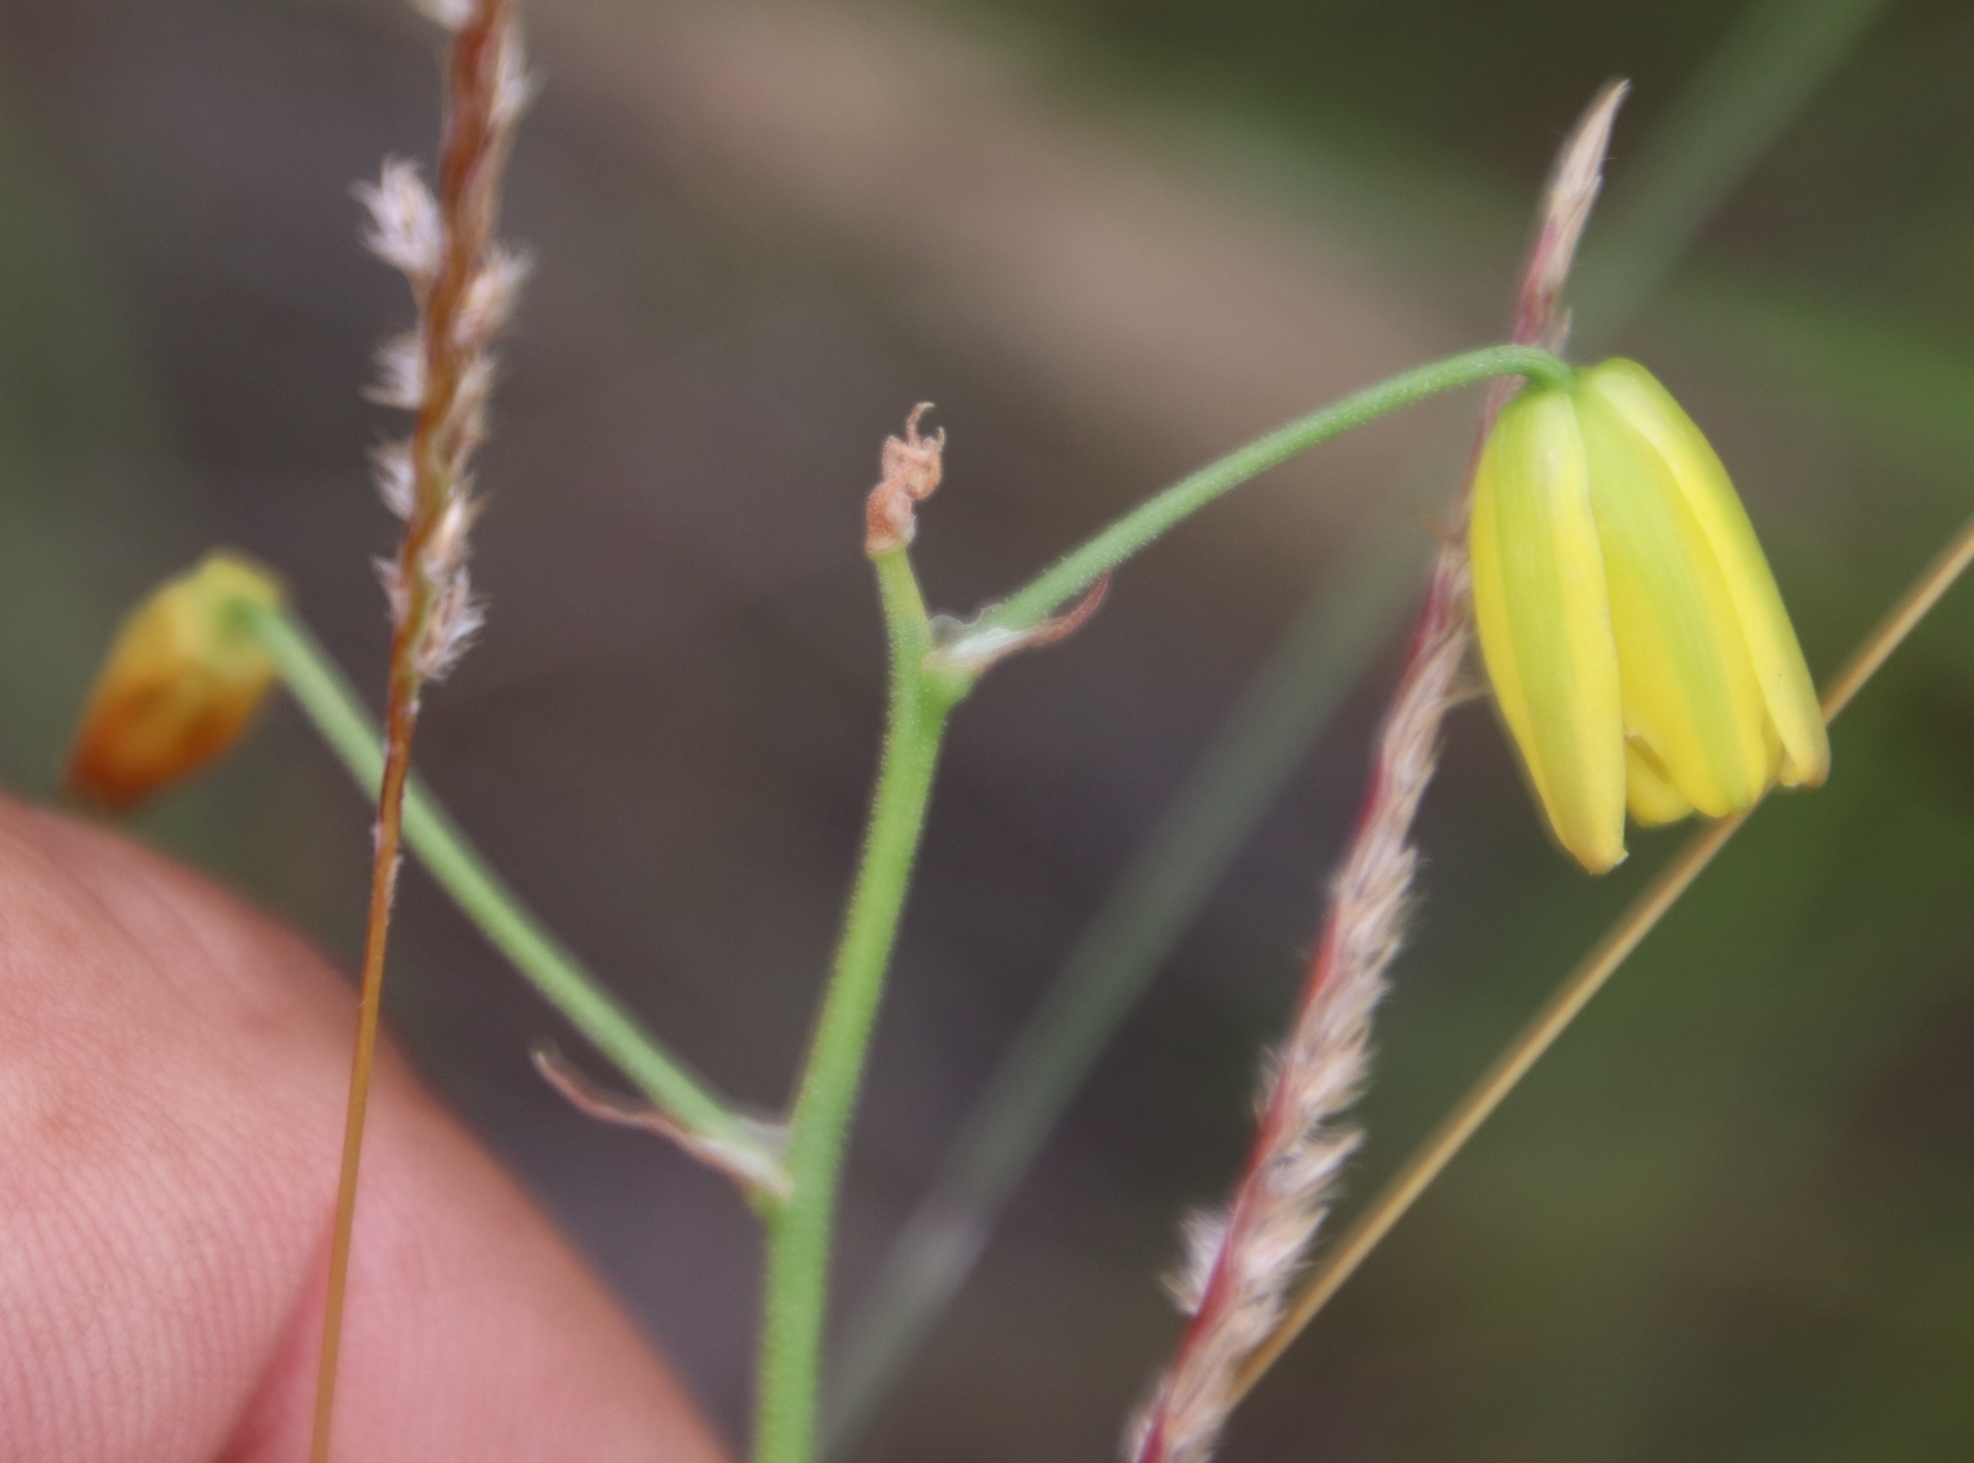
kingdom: Plantae
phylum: Tracheophyta
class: Liliopsida
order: Asparagales
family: Asparagaceae
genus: Albuca
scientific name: Albuca shawii
